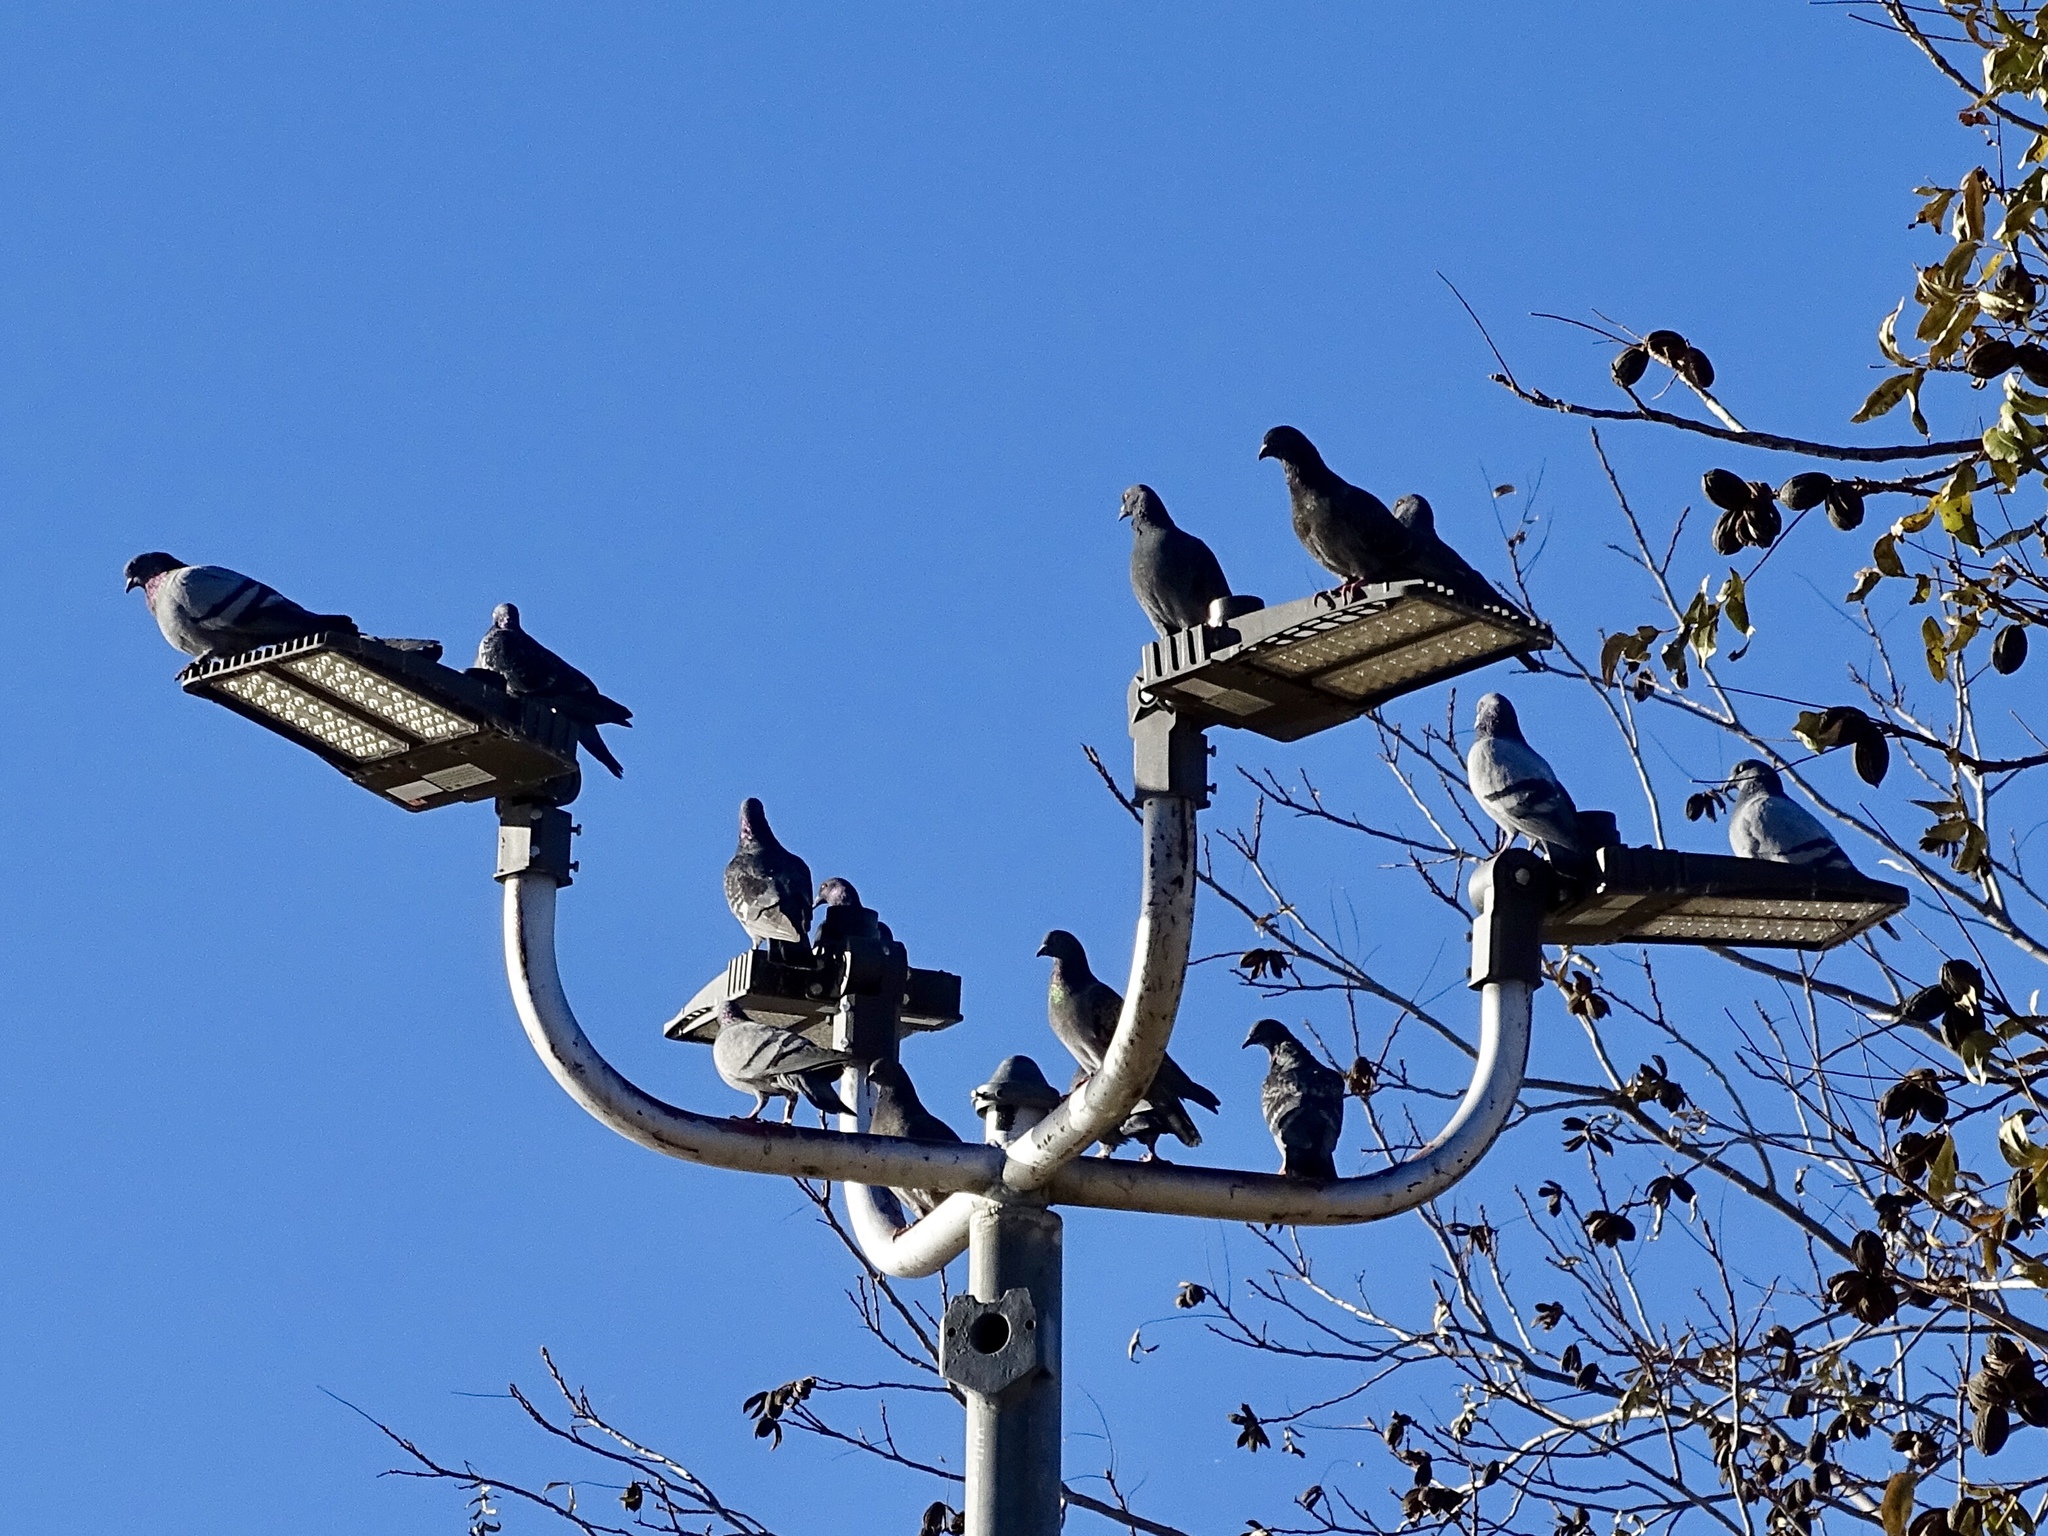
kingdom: Animalia
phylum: Chordata
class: Aves
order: Columbiformes
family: Columbidae
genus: Columba
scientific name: Columba livia
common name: Rock pigeon
